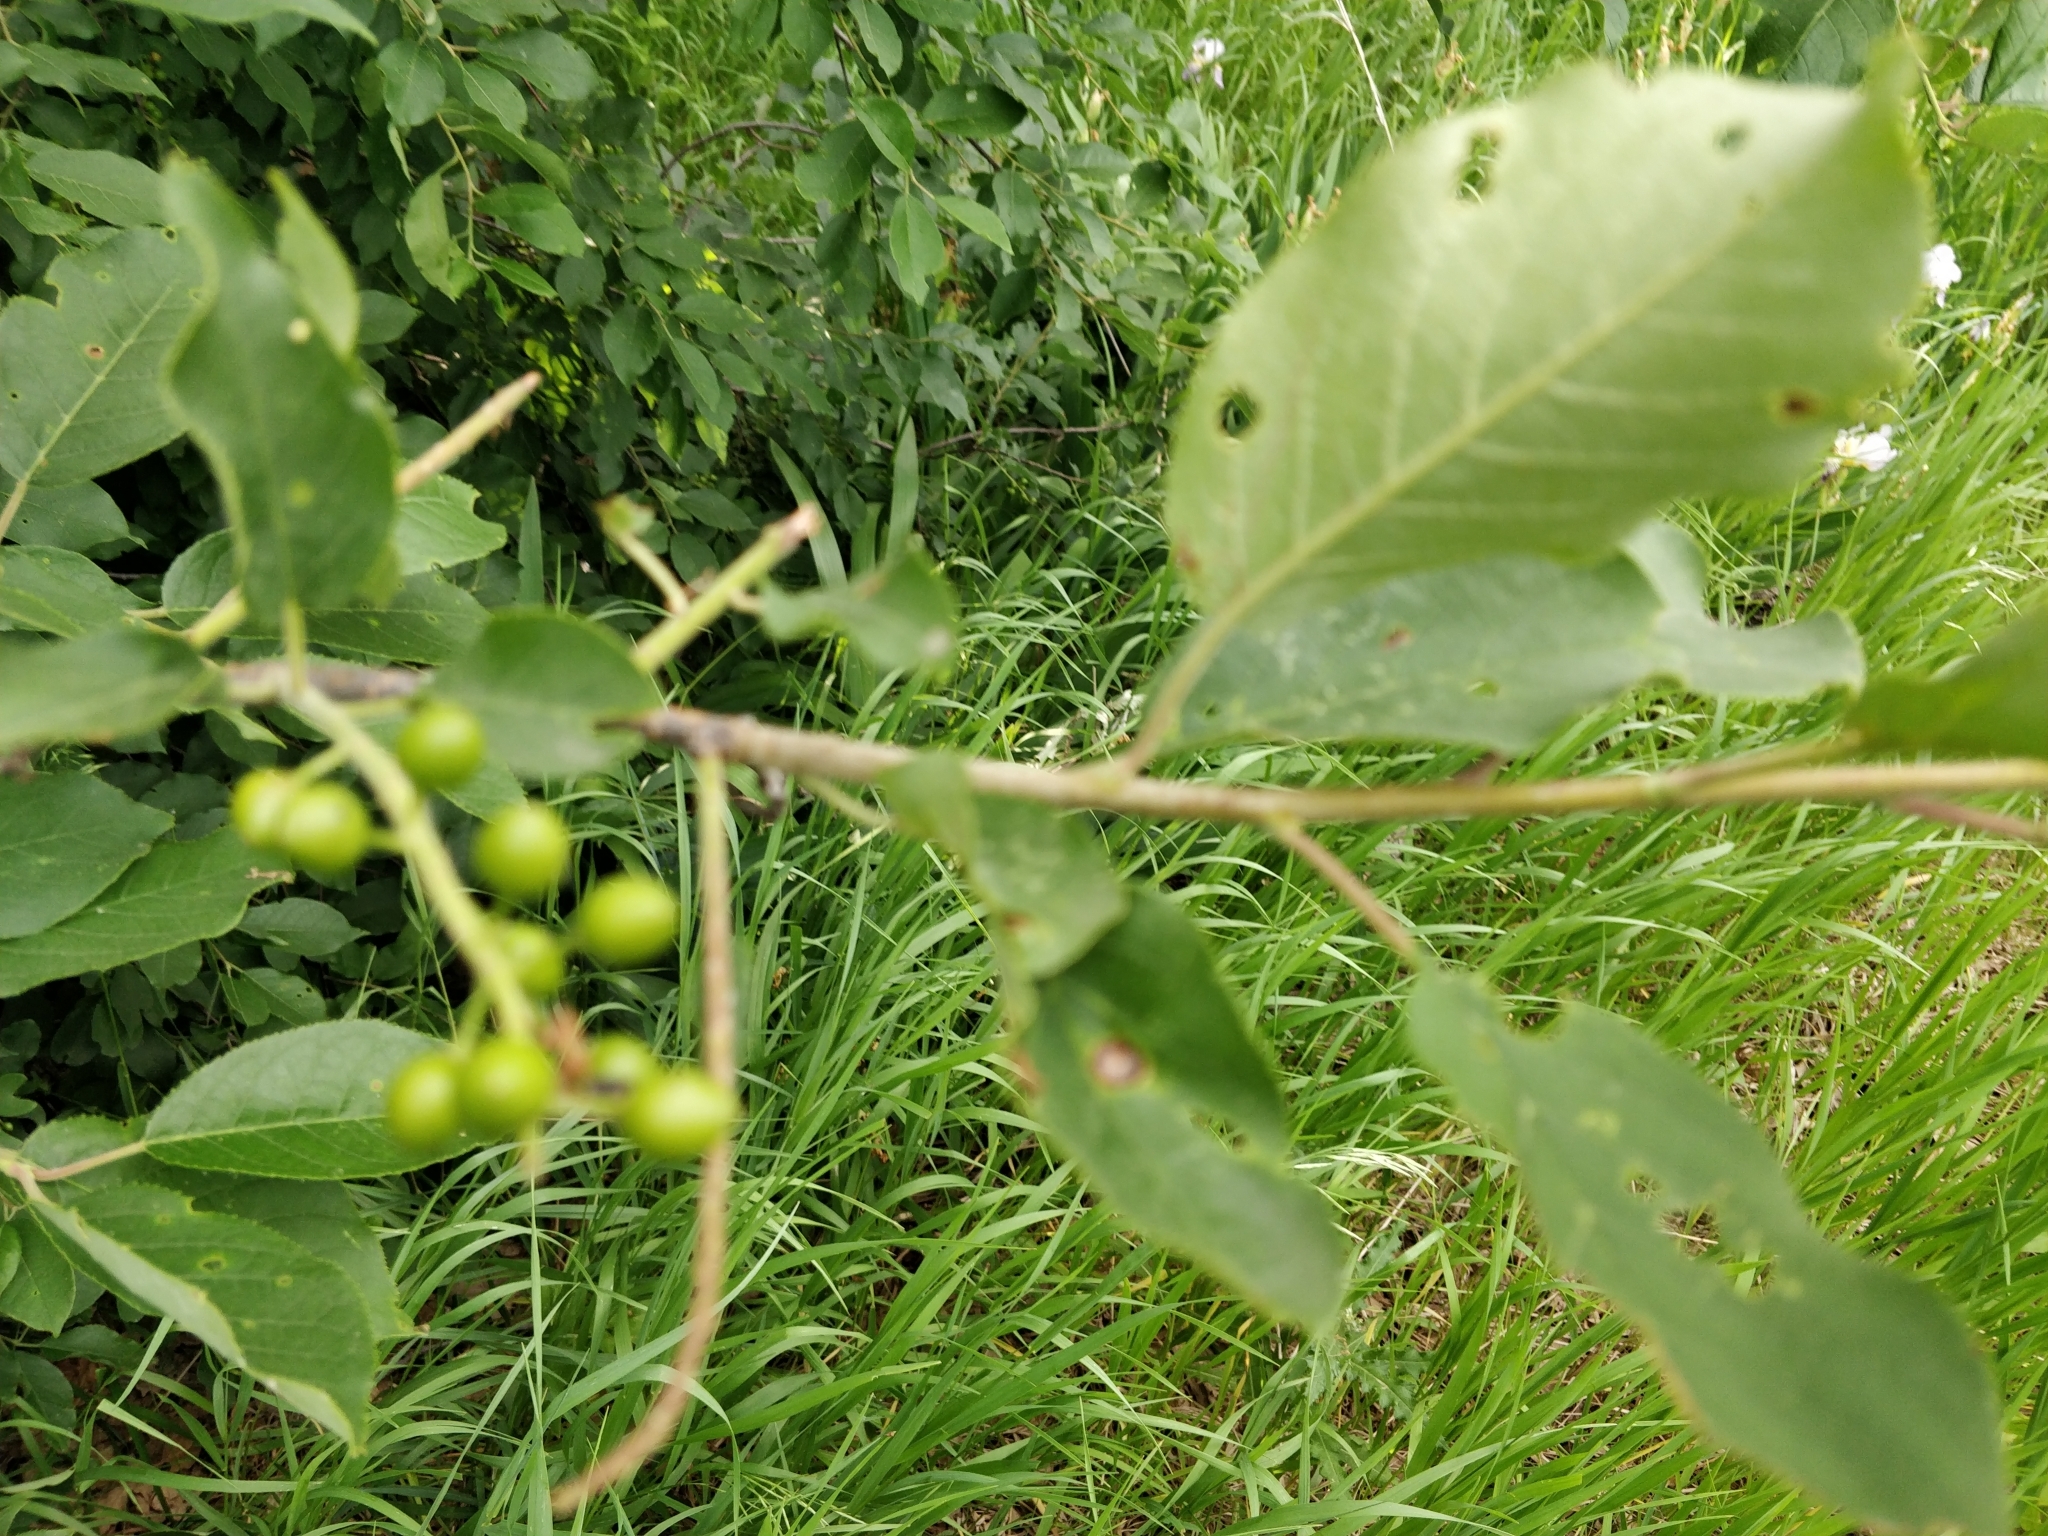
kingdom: Plantae
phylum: Tracheophyta
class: Magnoliopsida
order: Rosales
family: Rosaceae
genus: Prunus
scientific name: Prunus virginiana
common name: Chokecherry
